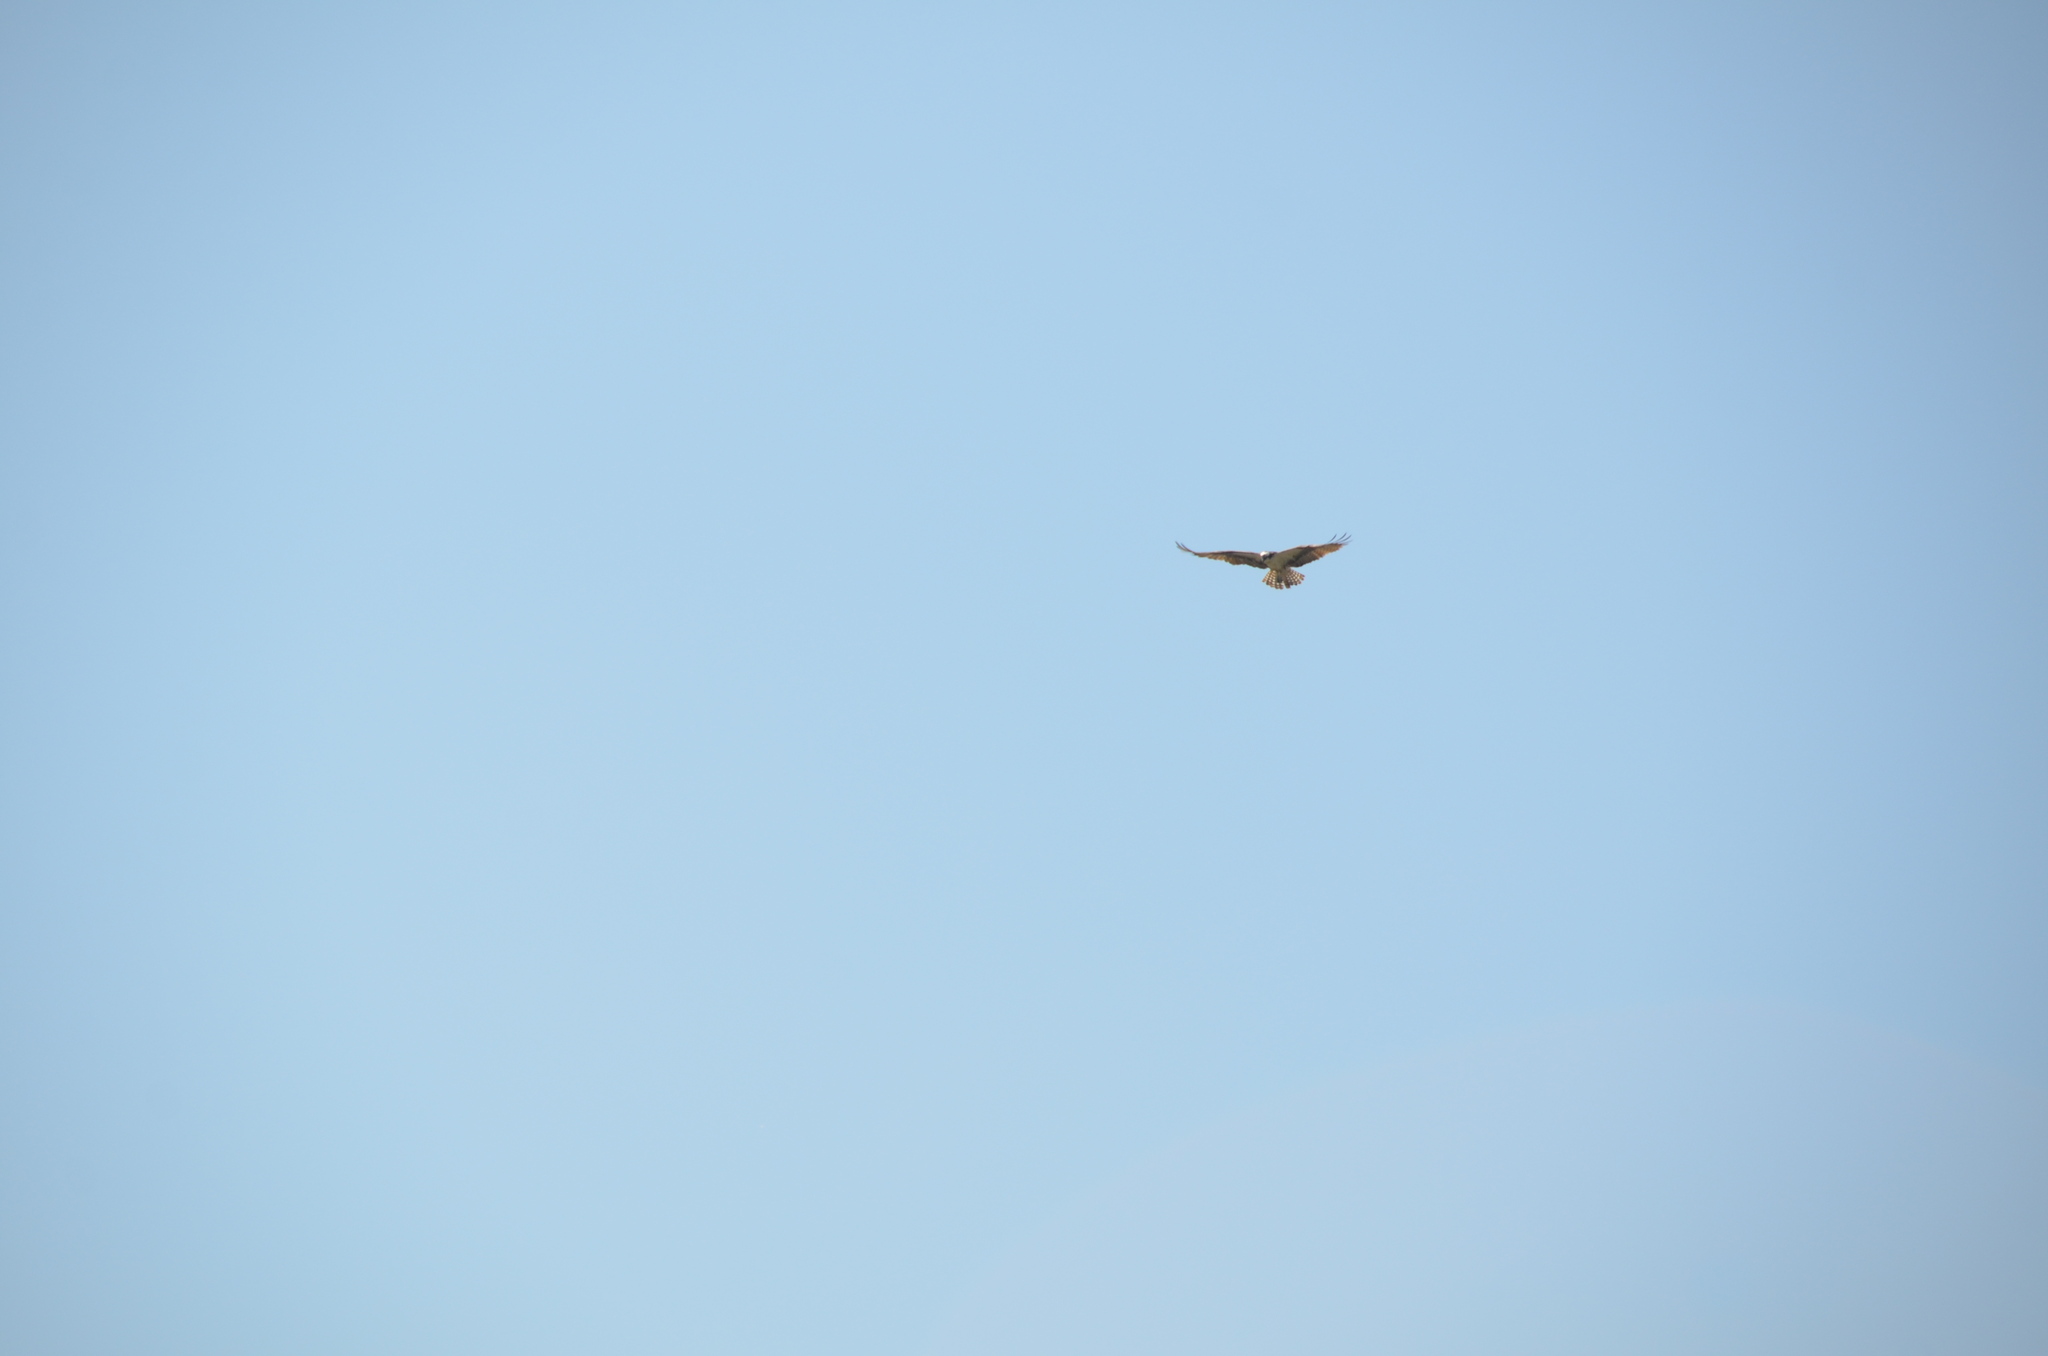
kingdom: Animalia
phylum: Chordata
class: Aves
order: Accipitriformes
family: Pandionidae
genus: Pandion
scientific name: Pandion haliaetus
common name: Osprey
